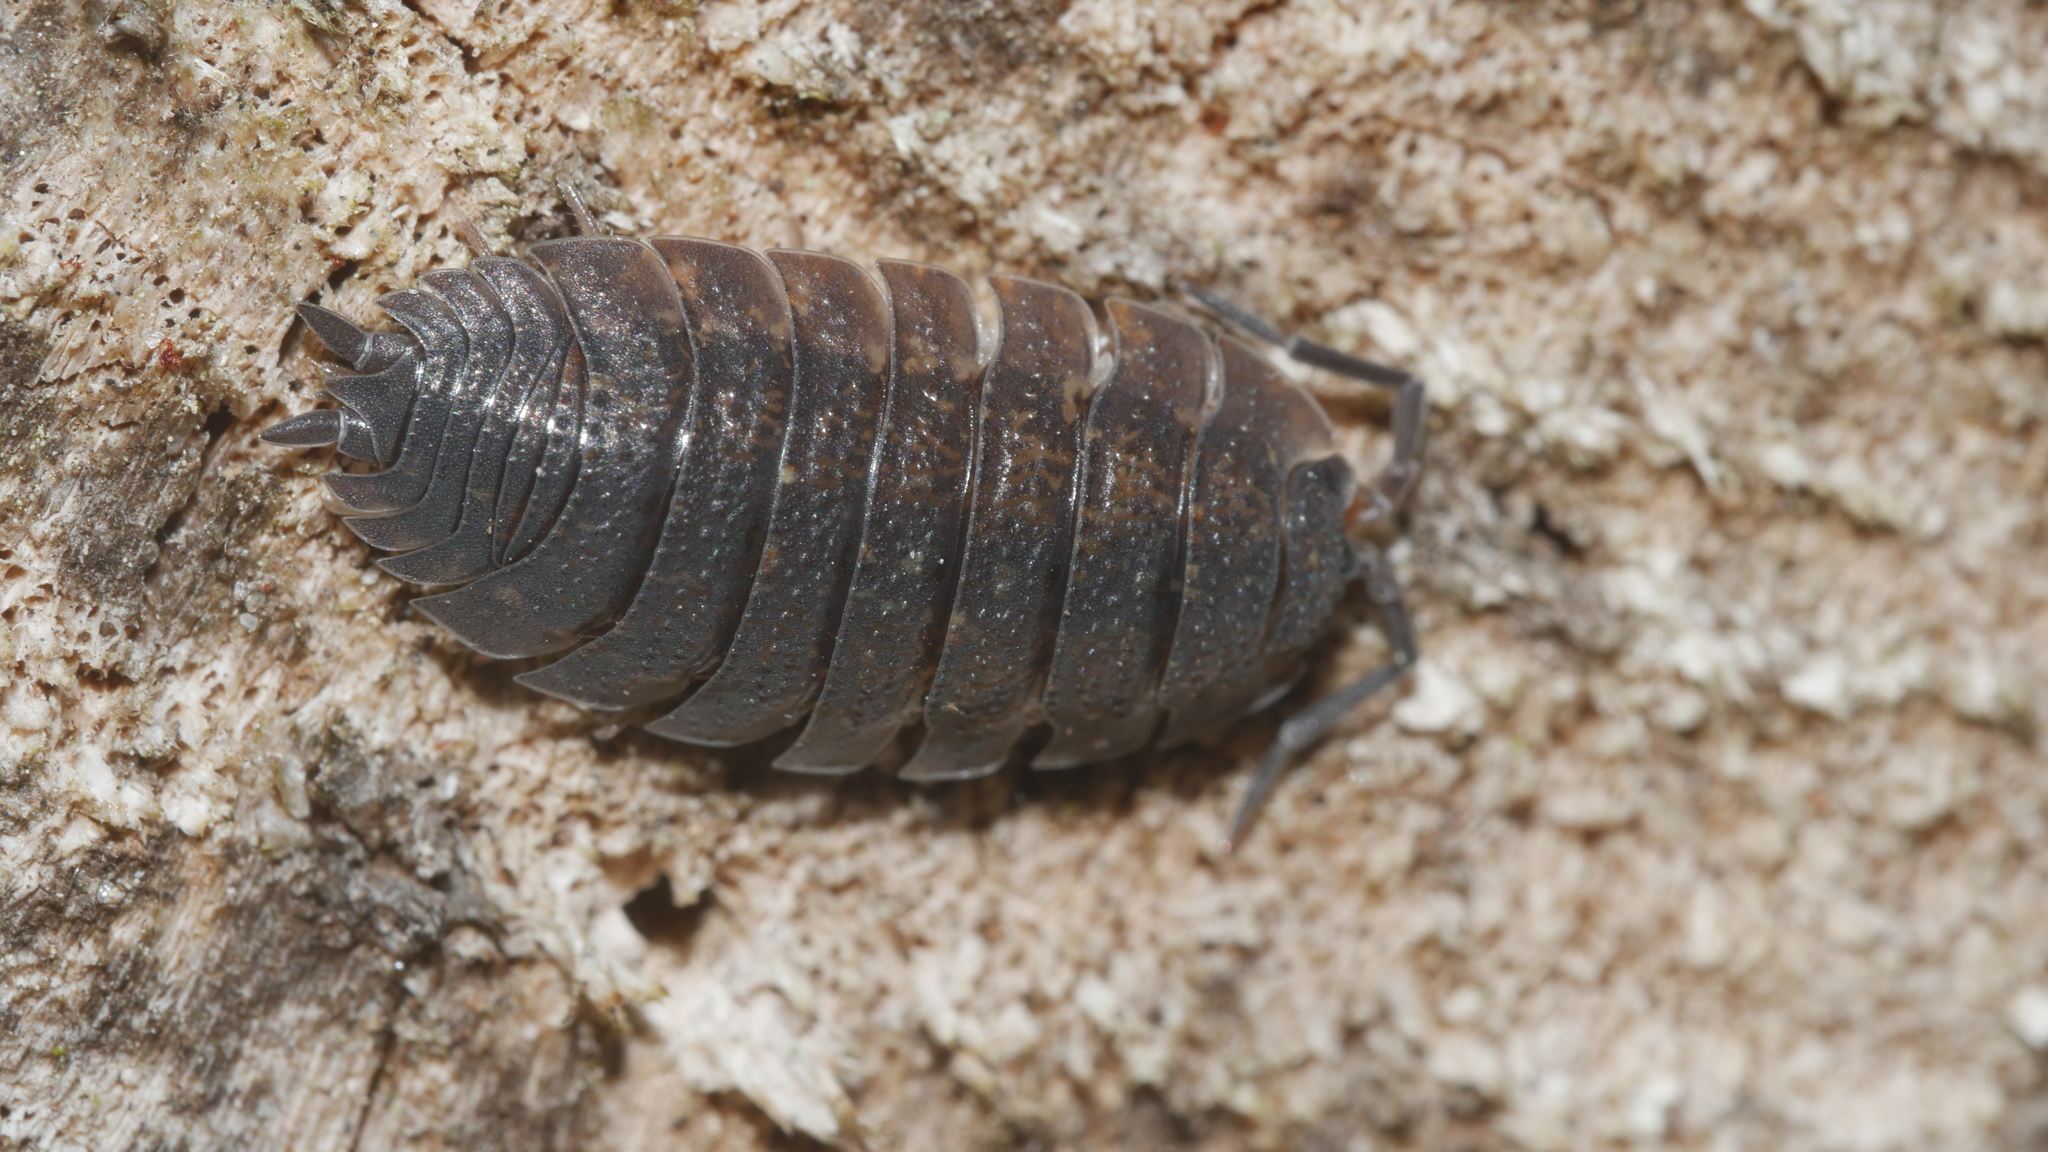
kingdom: Animalia
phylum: Arthropoda
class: Malacostraca
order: Isopoda
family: Porcellionidae
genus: Porcellio
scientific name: Porcellio scaber
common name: Common rough woodlouse
